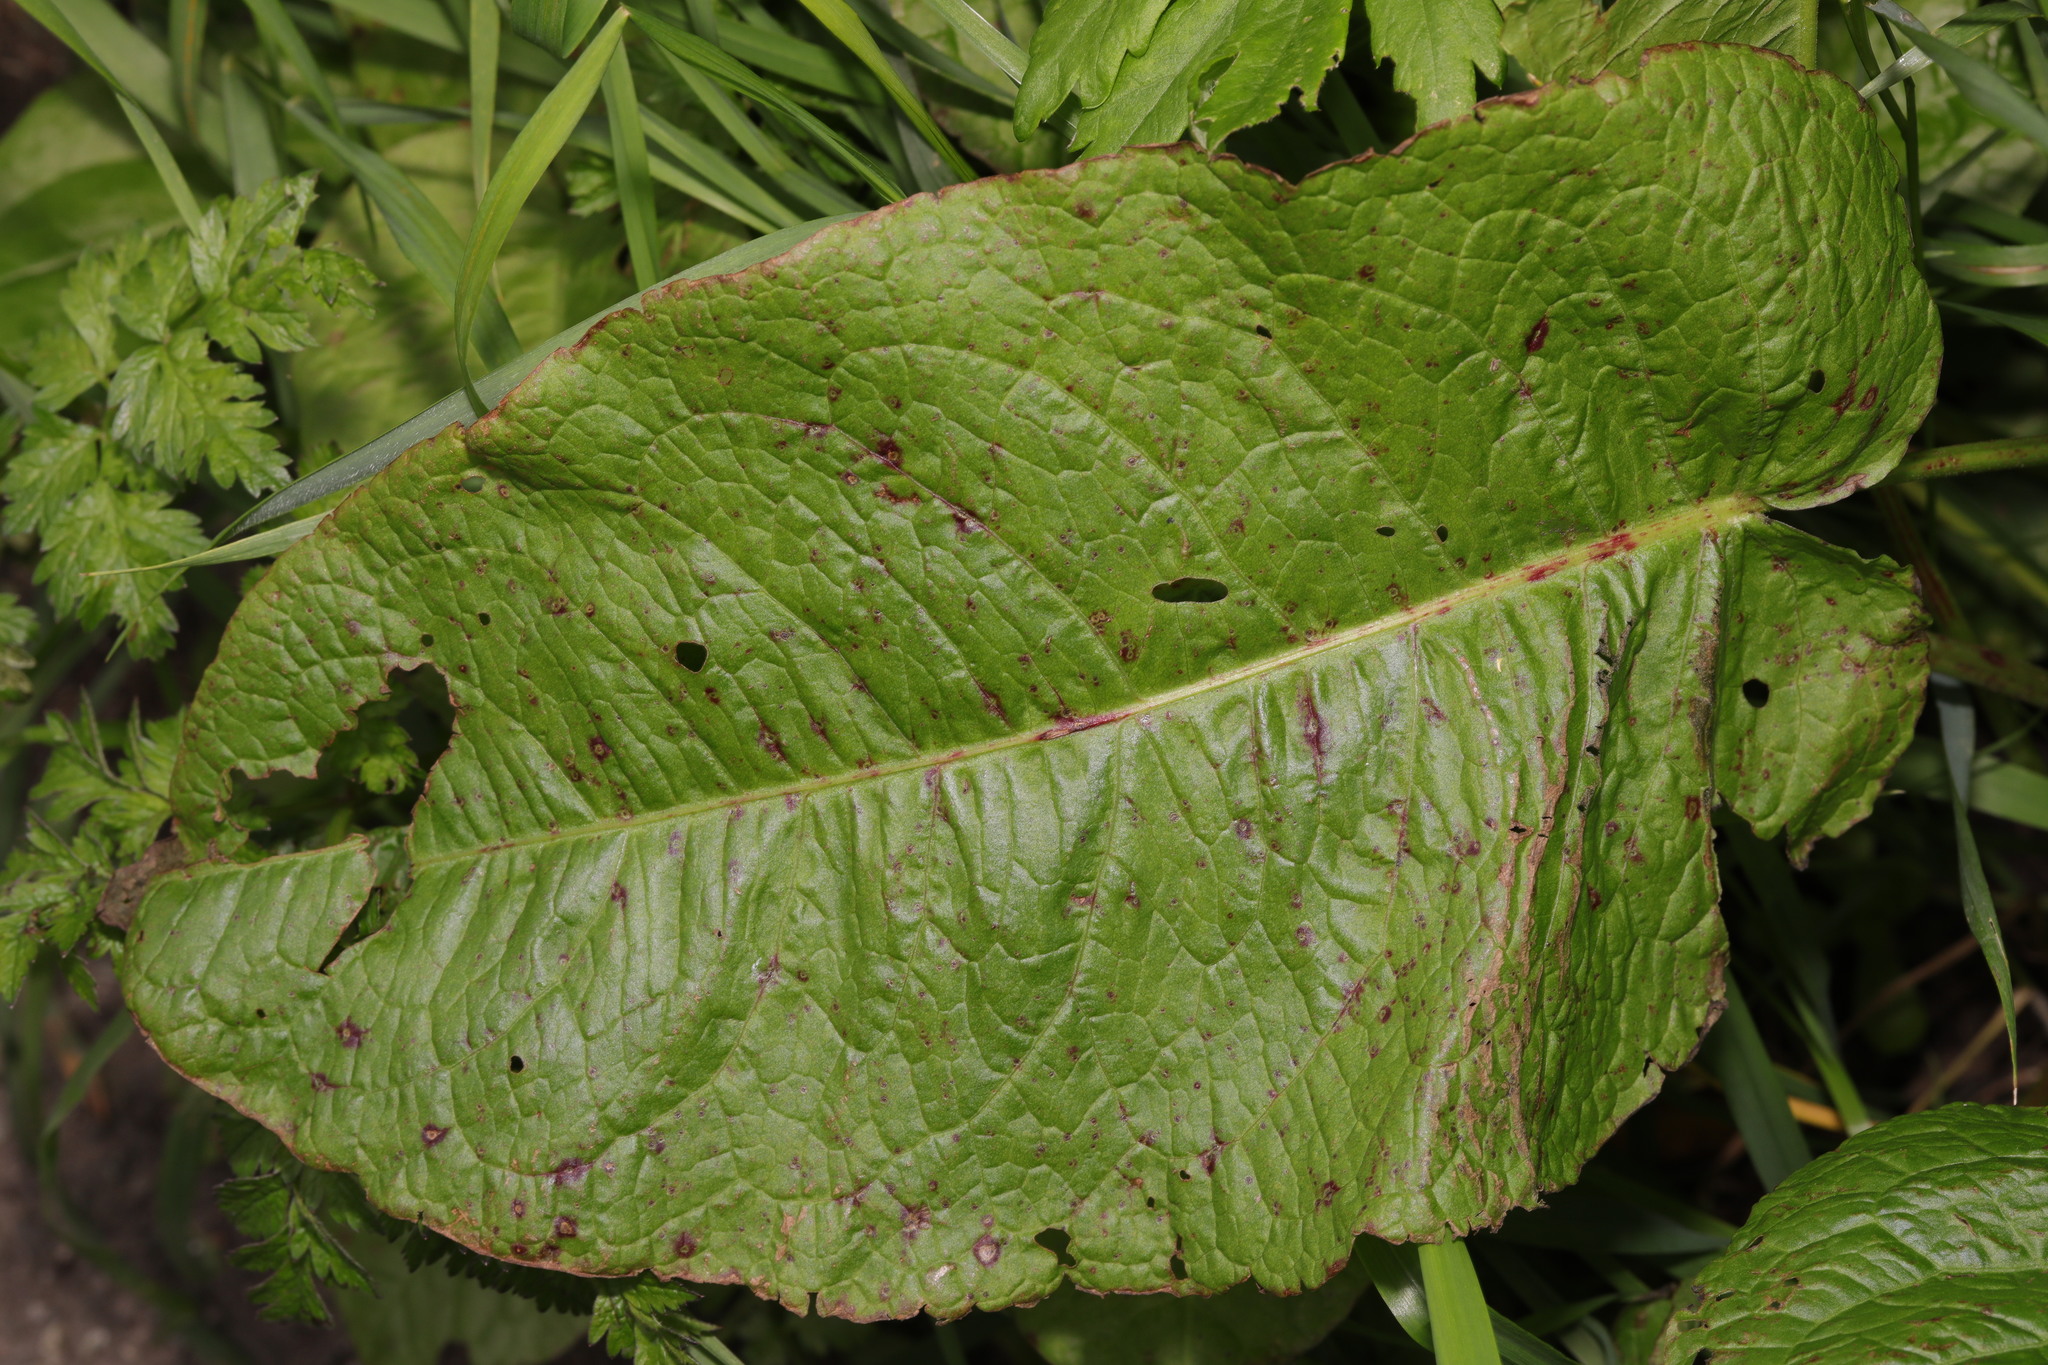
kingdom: Plantae
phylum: Tracheophyta
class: Magnoliopsida
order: Caryophyllales
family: Polygonaceae
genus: Rumex
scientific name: Rumex obtusifolius
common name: Bitter dock
